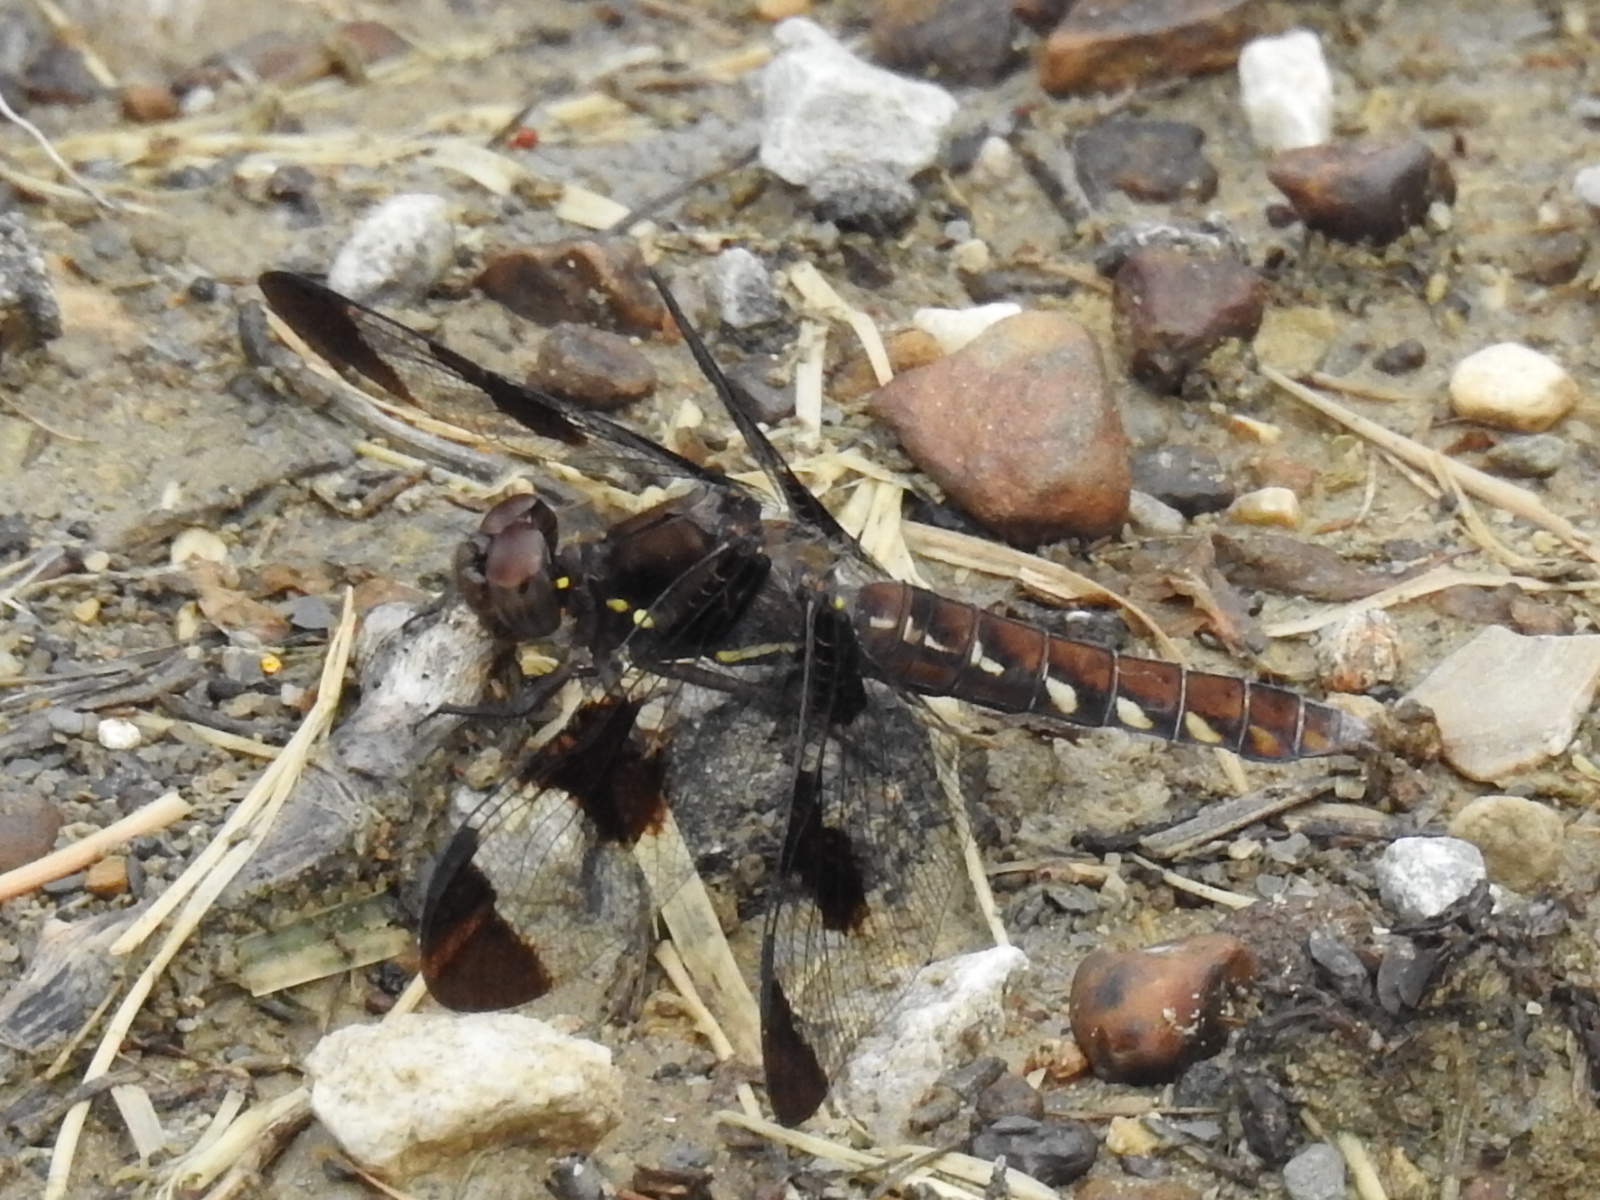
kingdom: Animalia
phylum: Arthropoda
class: Insecta
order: Odonata
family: Libellulidae
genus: Plathemis
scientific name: Plathemis lydia
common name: Common whitetail
